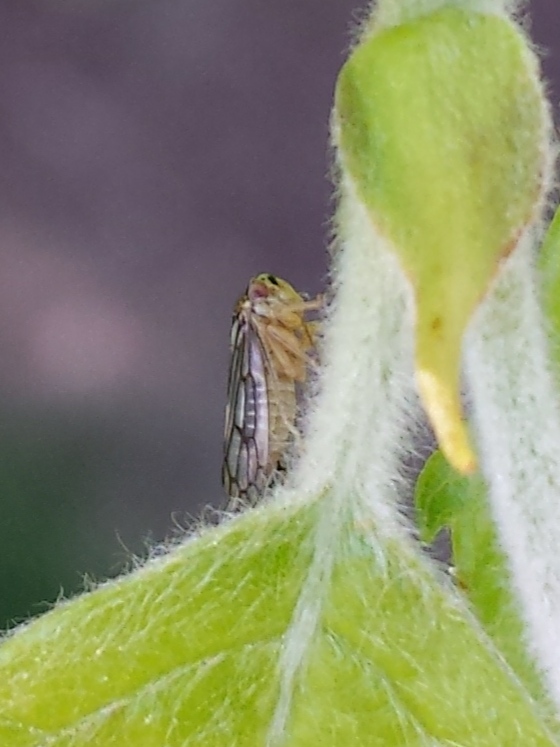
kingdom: Animalia
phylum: Arthropoda
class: Insecta
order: Hemiptera
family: Cicadellidae
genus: Oncopsis
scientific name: Oncopsis deluda
